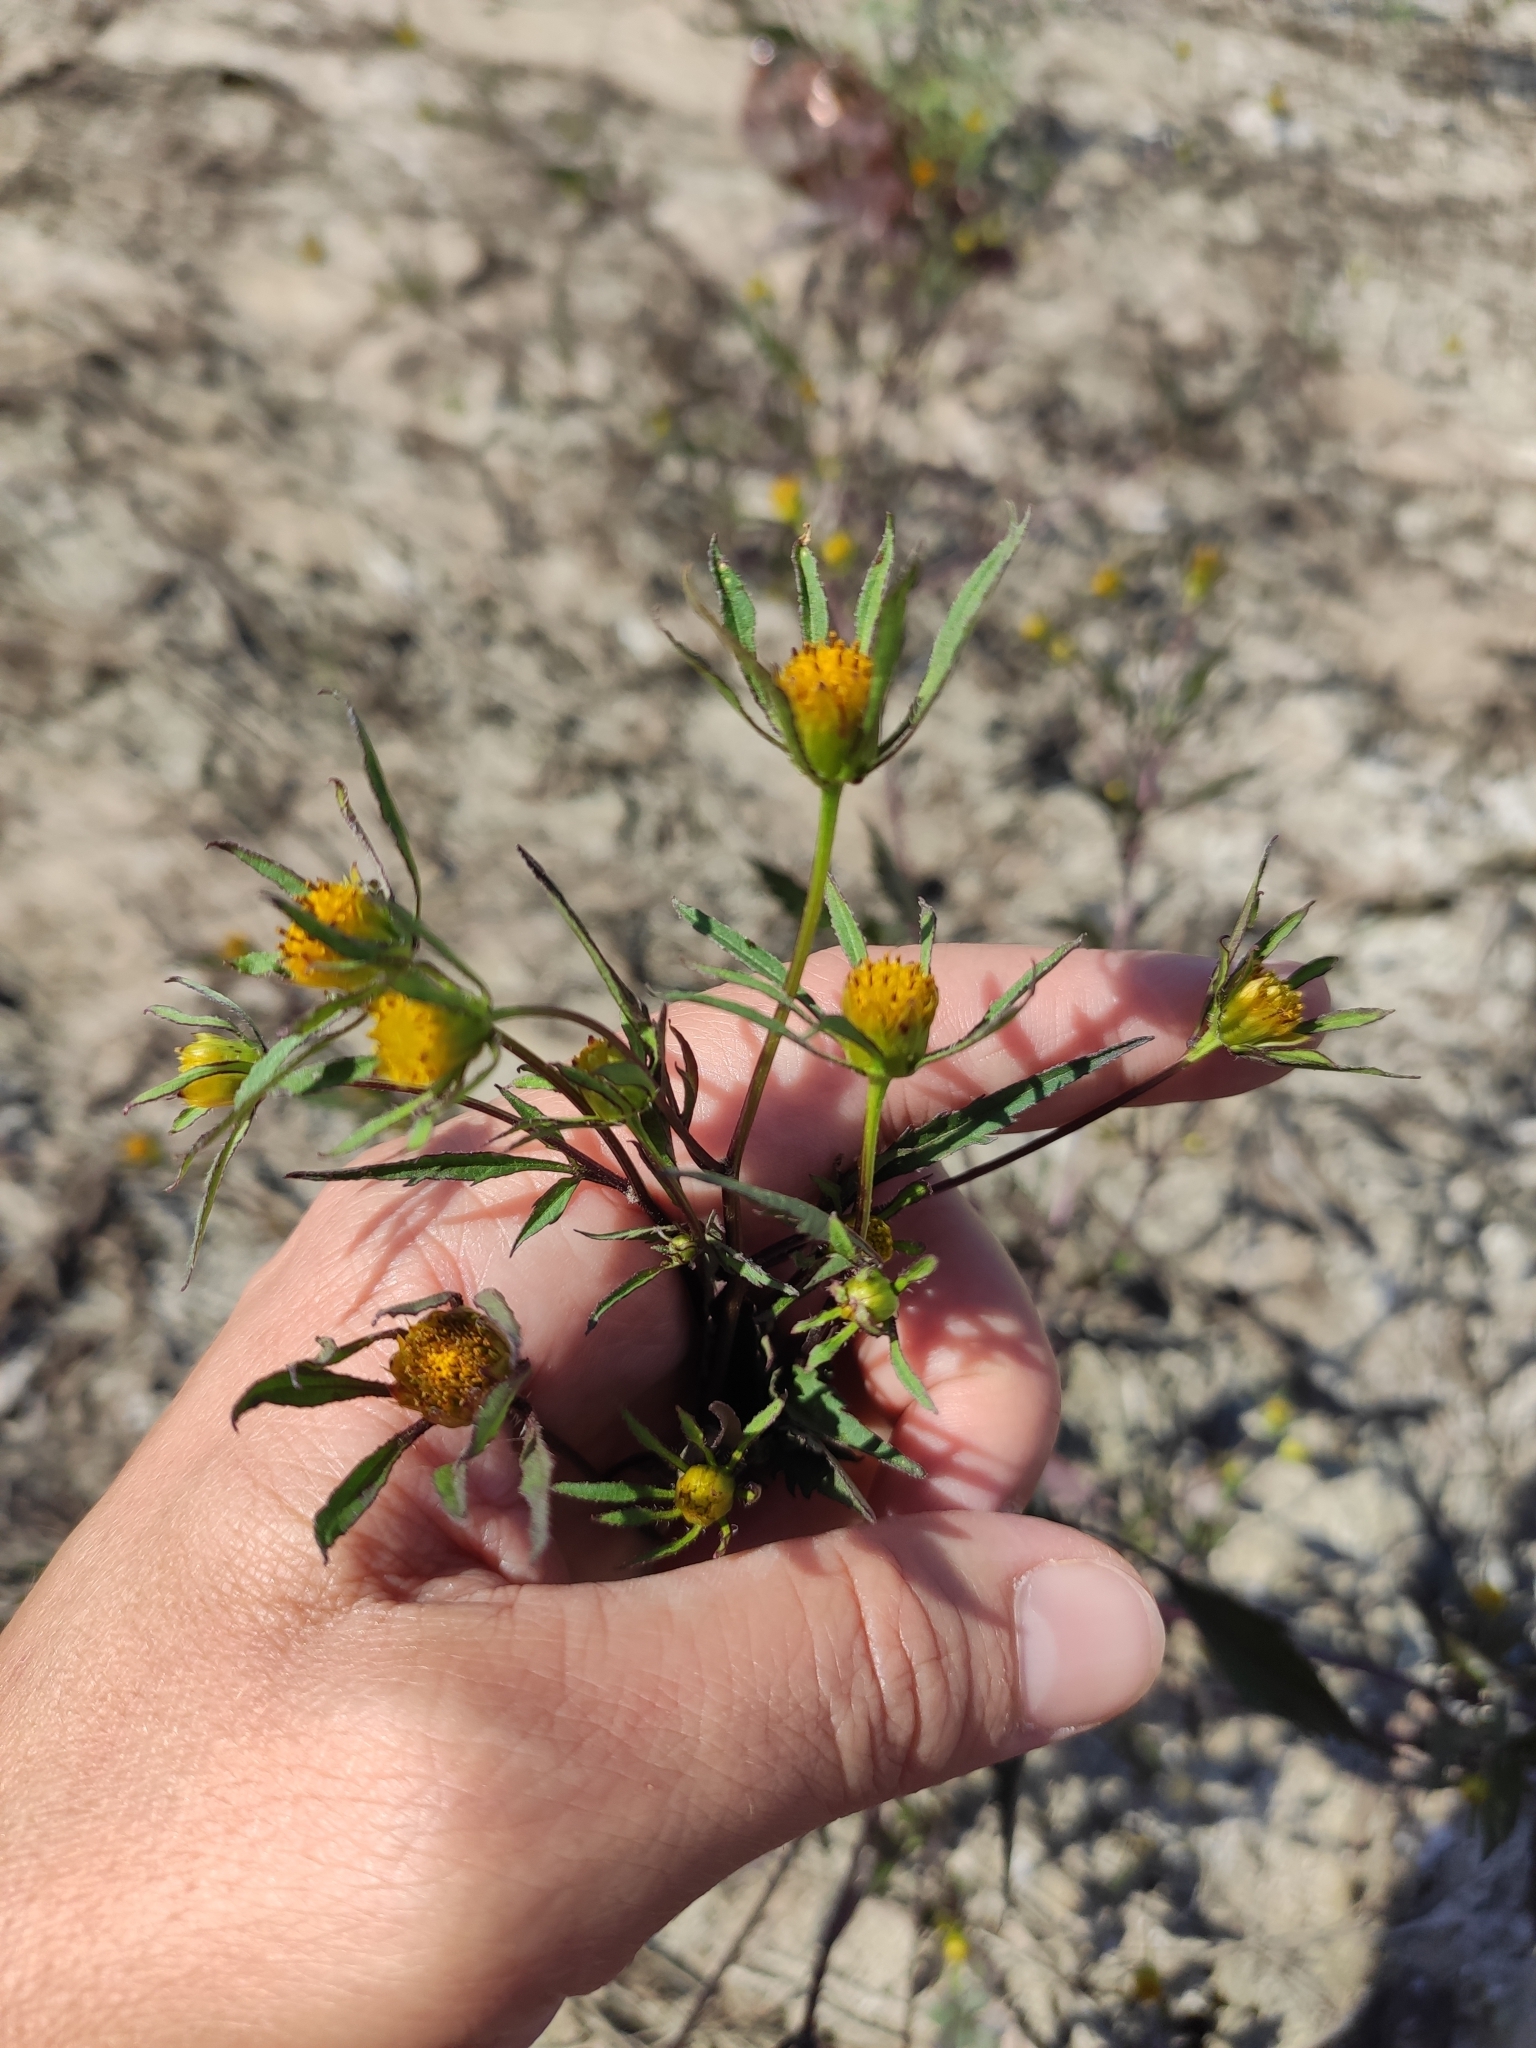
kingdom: Plantae
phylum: Tracheophyta
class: Magnoliopsida
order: Asterales
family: Asteraceae
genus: Bidens
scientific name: Bidens frondosa
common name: Beggarticks
